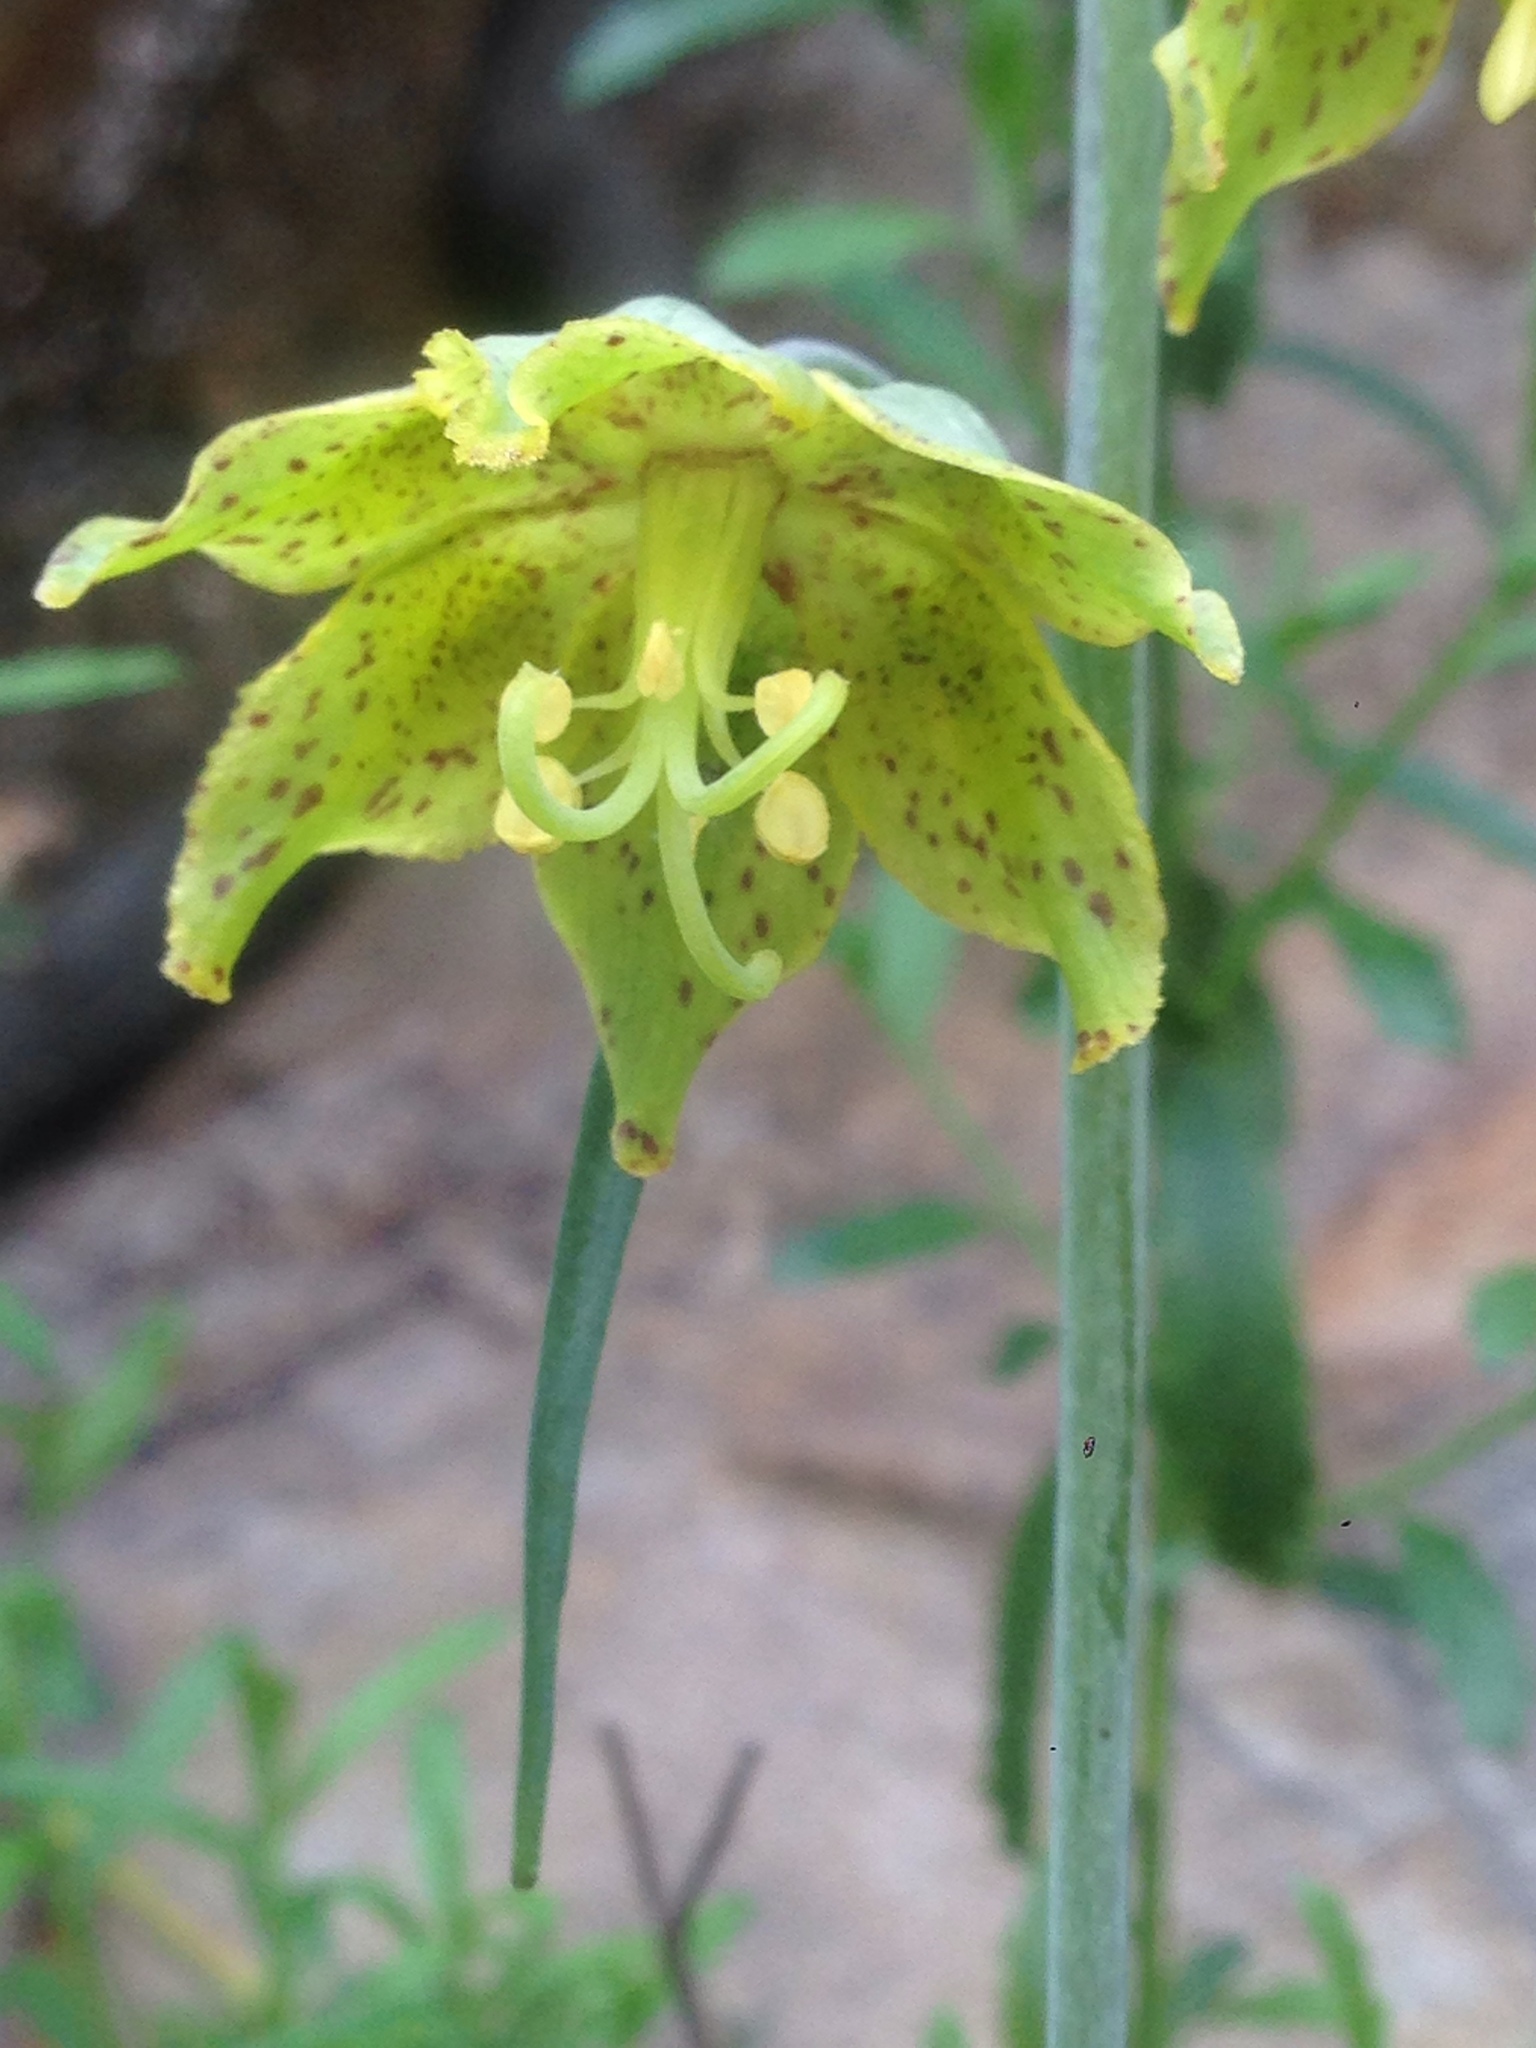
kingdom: Plantae
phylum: Tracheophyta
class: Liliopsida
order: Liliales
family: Liliaceae
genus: Fritillaria
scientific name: Fritillaria ojaiensis
